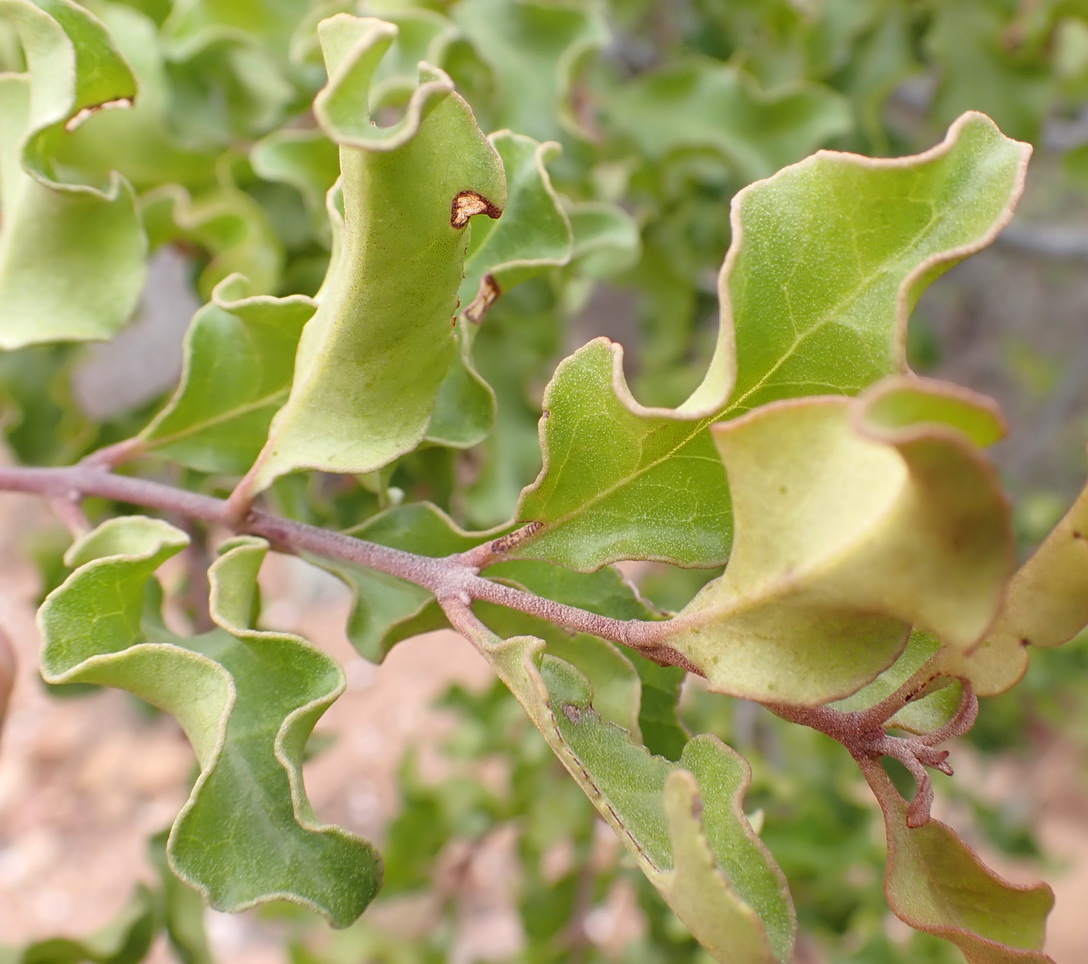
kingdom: Plantae
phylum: Tracheophyta
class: Magnoliopsida
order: Ericales
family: Ebenaceae
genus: Euclea
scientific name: Euclea undulata
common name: Small-leaved guarri
